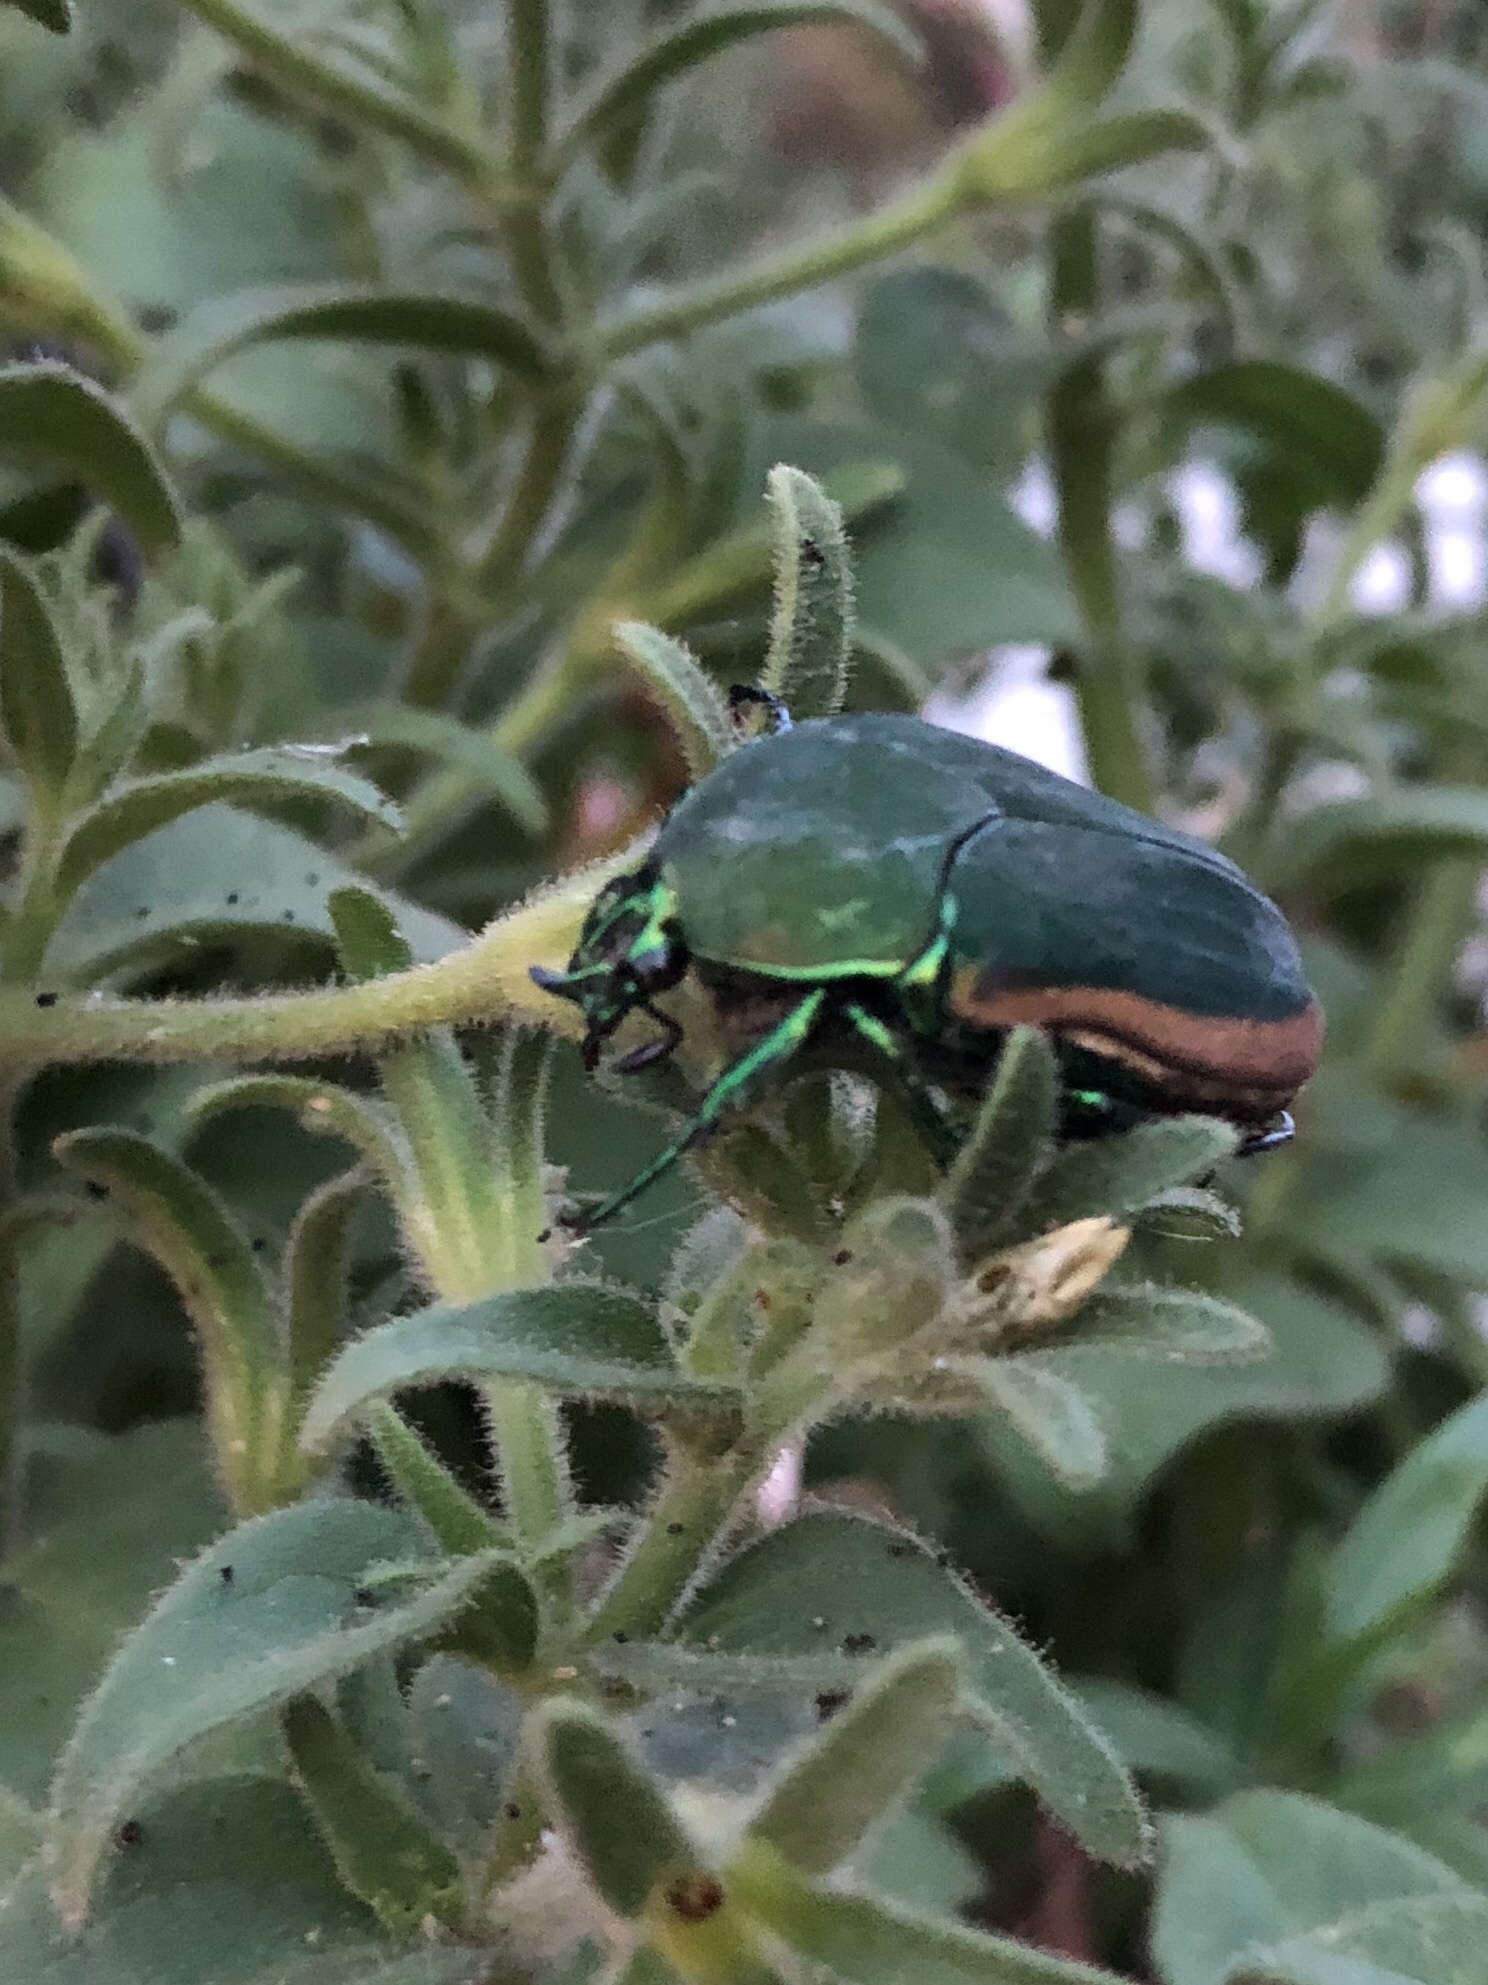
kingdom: Animalia
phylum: Arthropoda
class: Insecta
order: Coleoptera
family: Scarabaeidae
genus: Cotinis
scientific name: Cotinis mutabilis
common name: Figeater beetle
